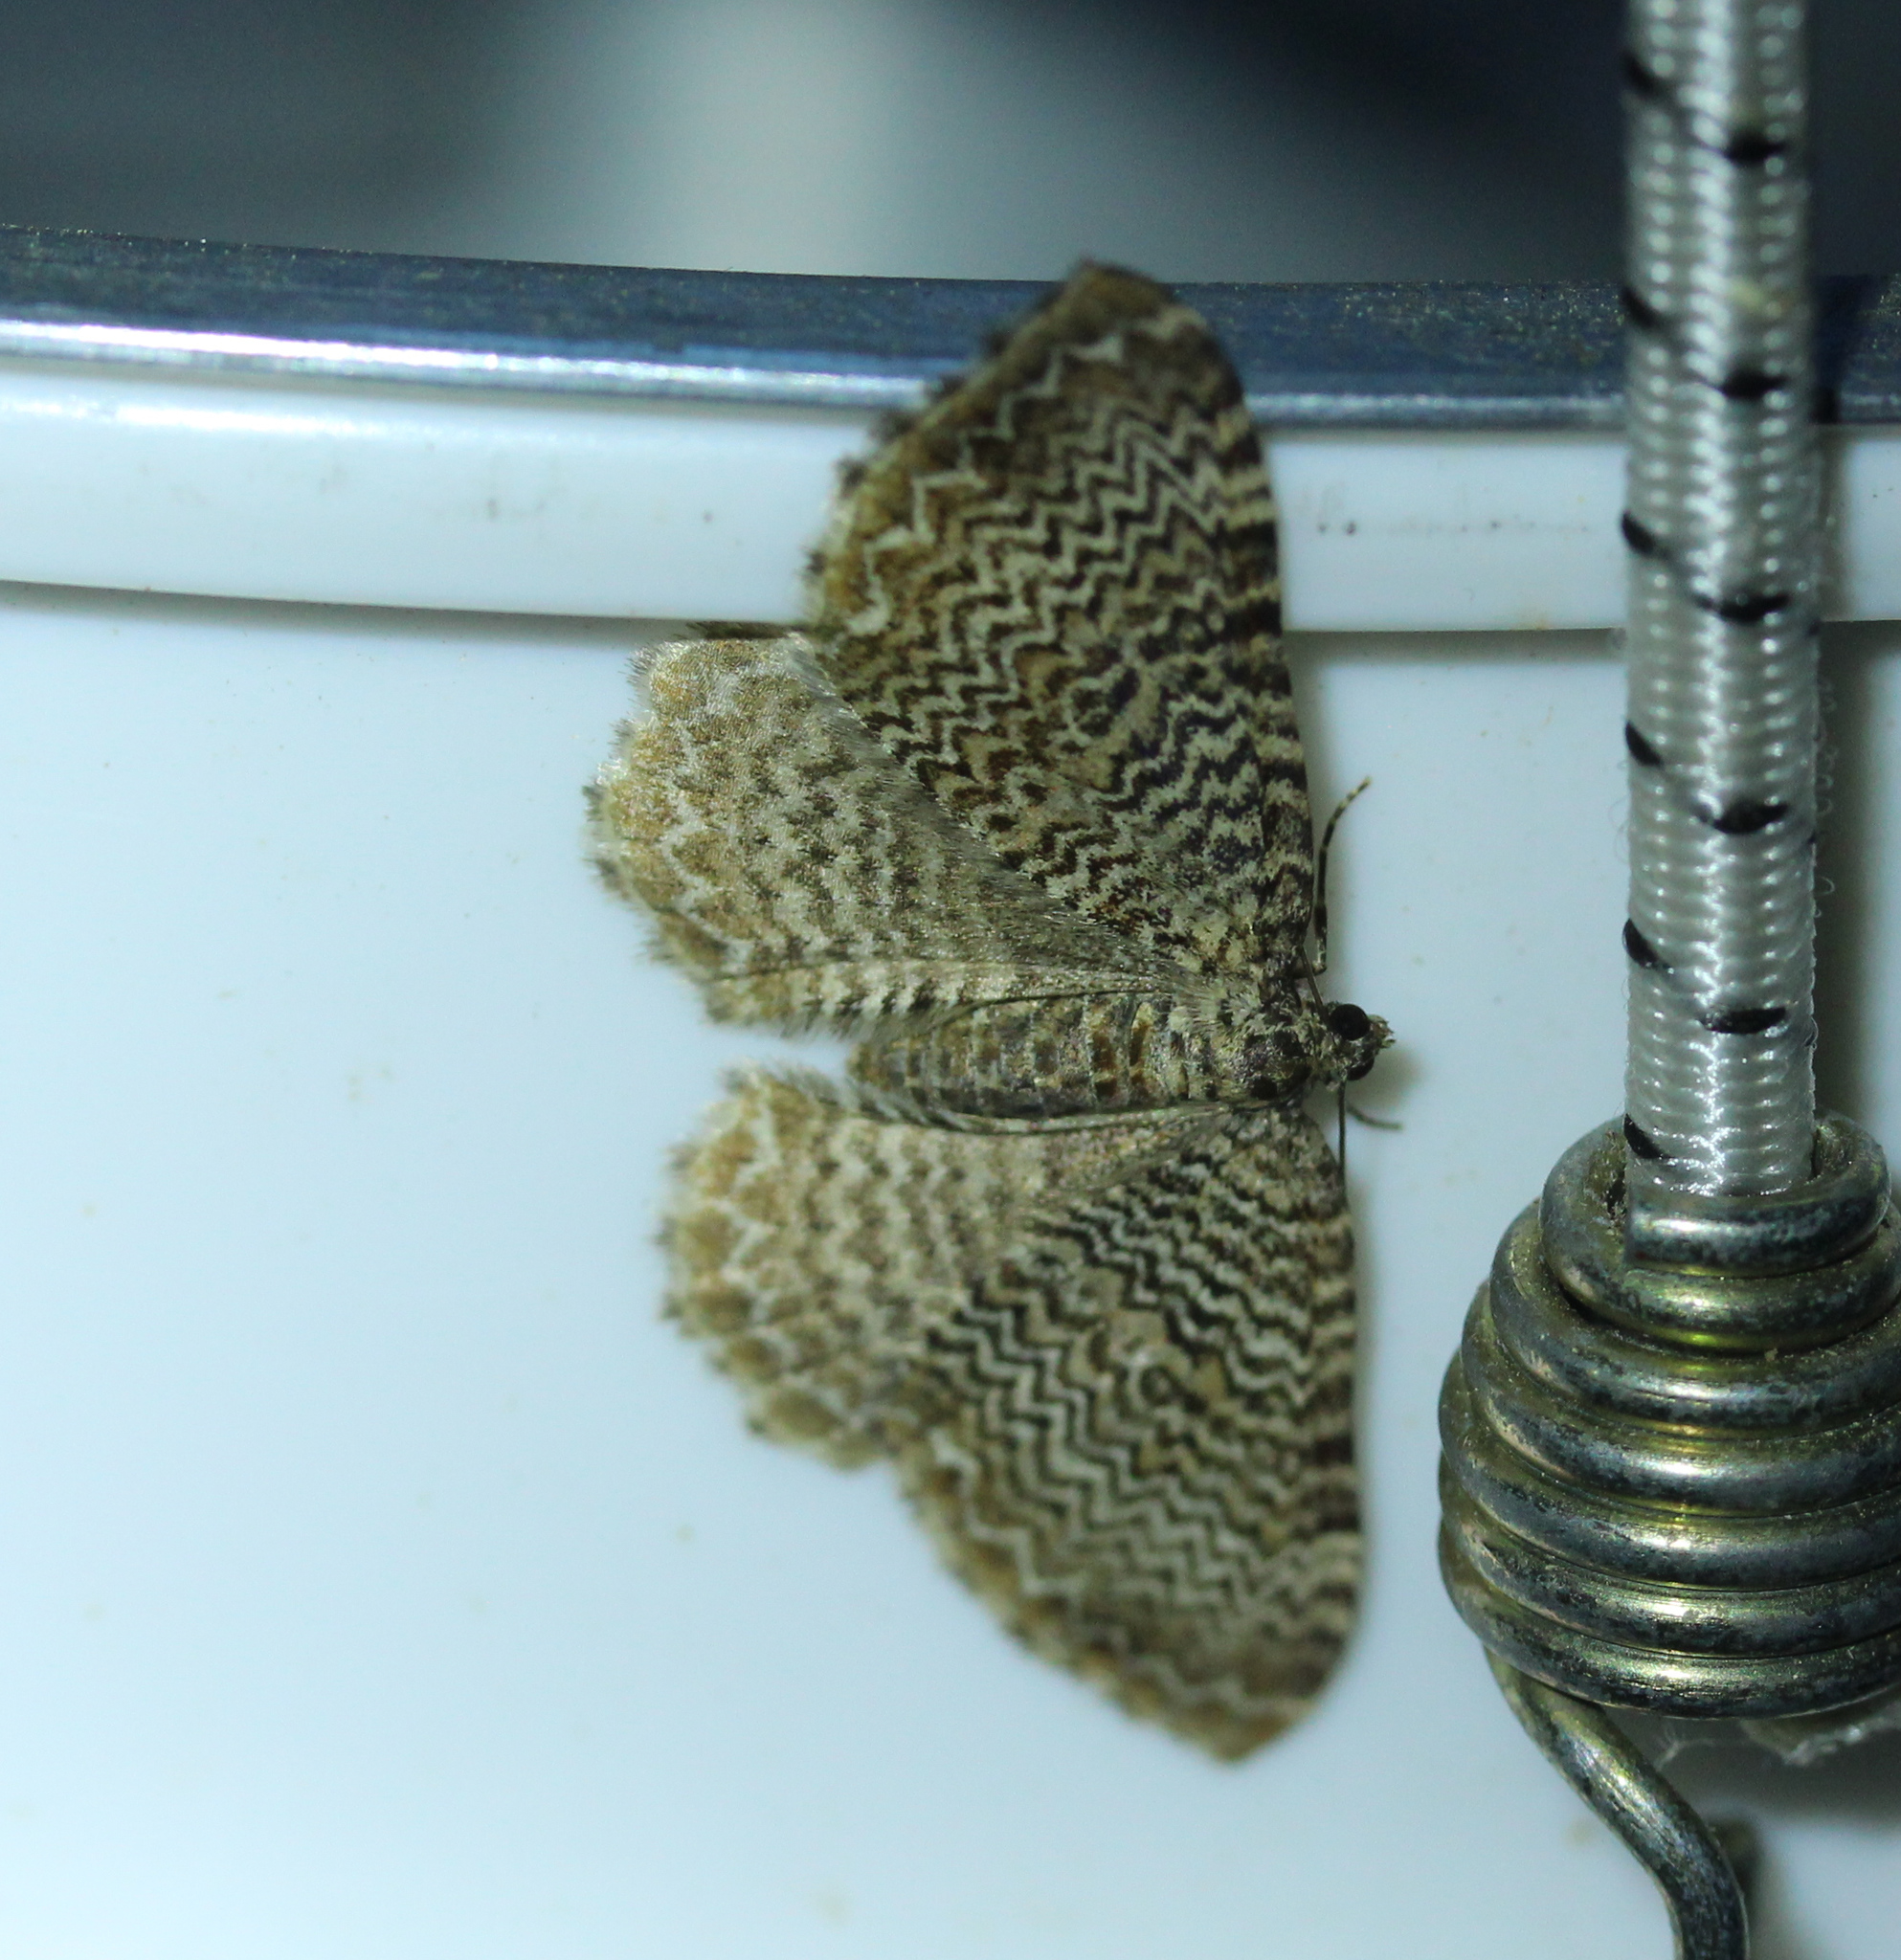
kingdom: Animalia
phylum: Arthropoda
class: Insecta
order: Lepidoptera
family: Geometridae
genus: Rheumaptera
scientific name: Rheumaptera
